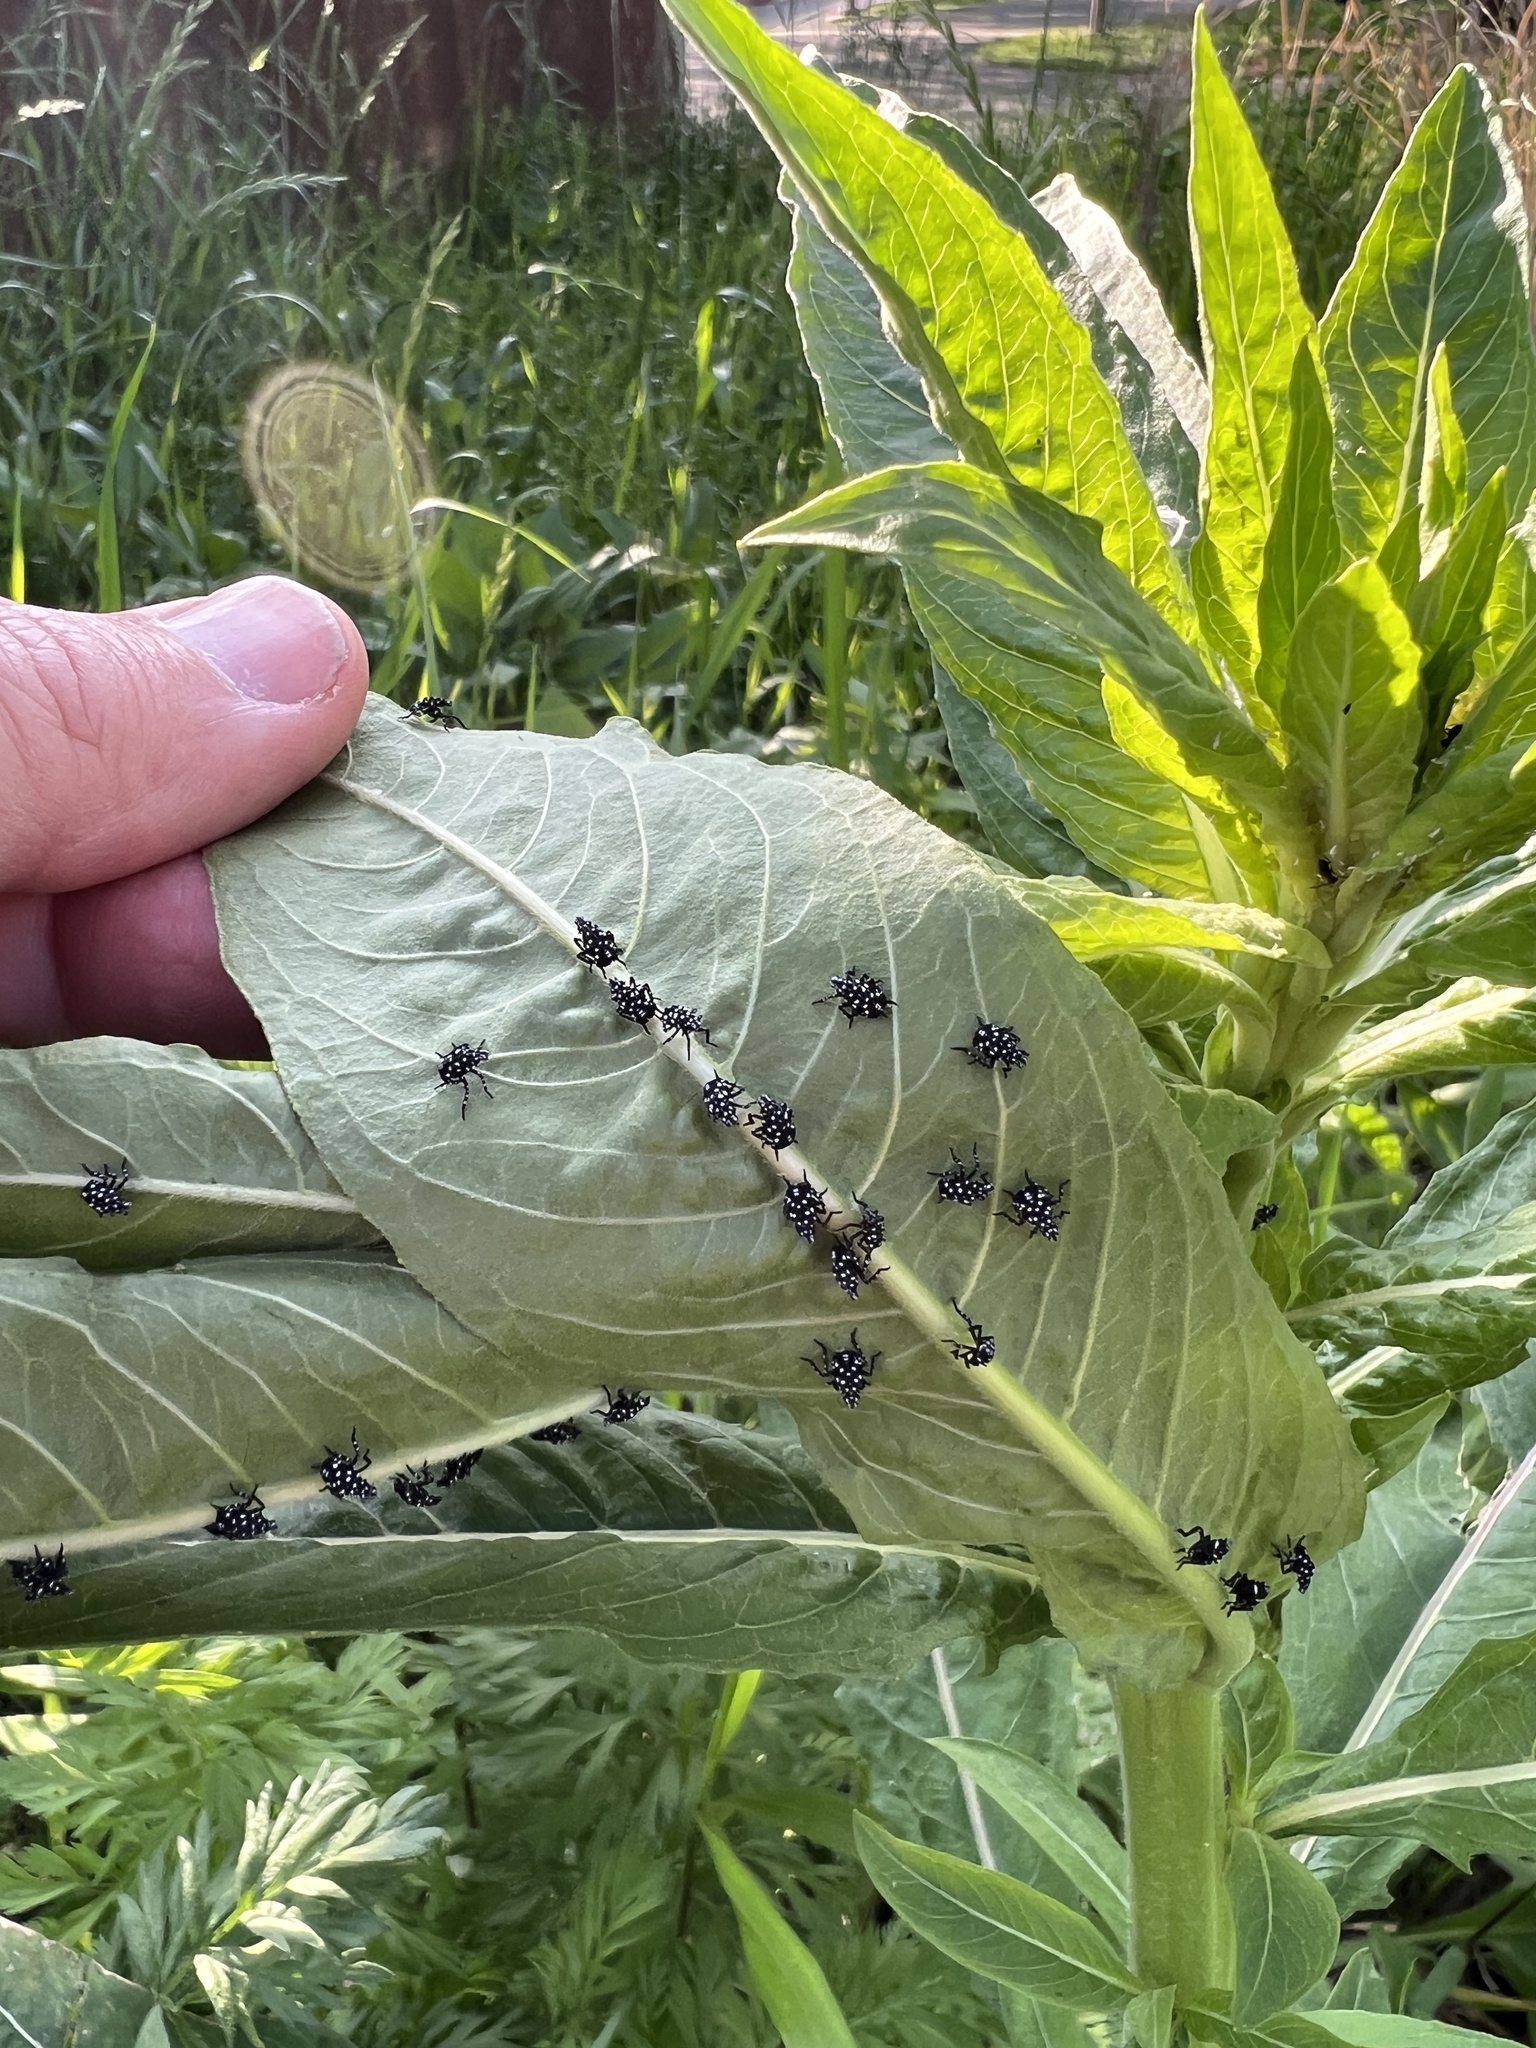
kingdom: Animalia
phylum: Arthropoda
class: Insecta
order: Hemiptera
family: Fulgoridae
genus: Lycorma
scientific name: Lycorma delicatula
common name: Spotted lanternfly
